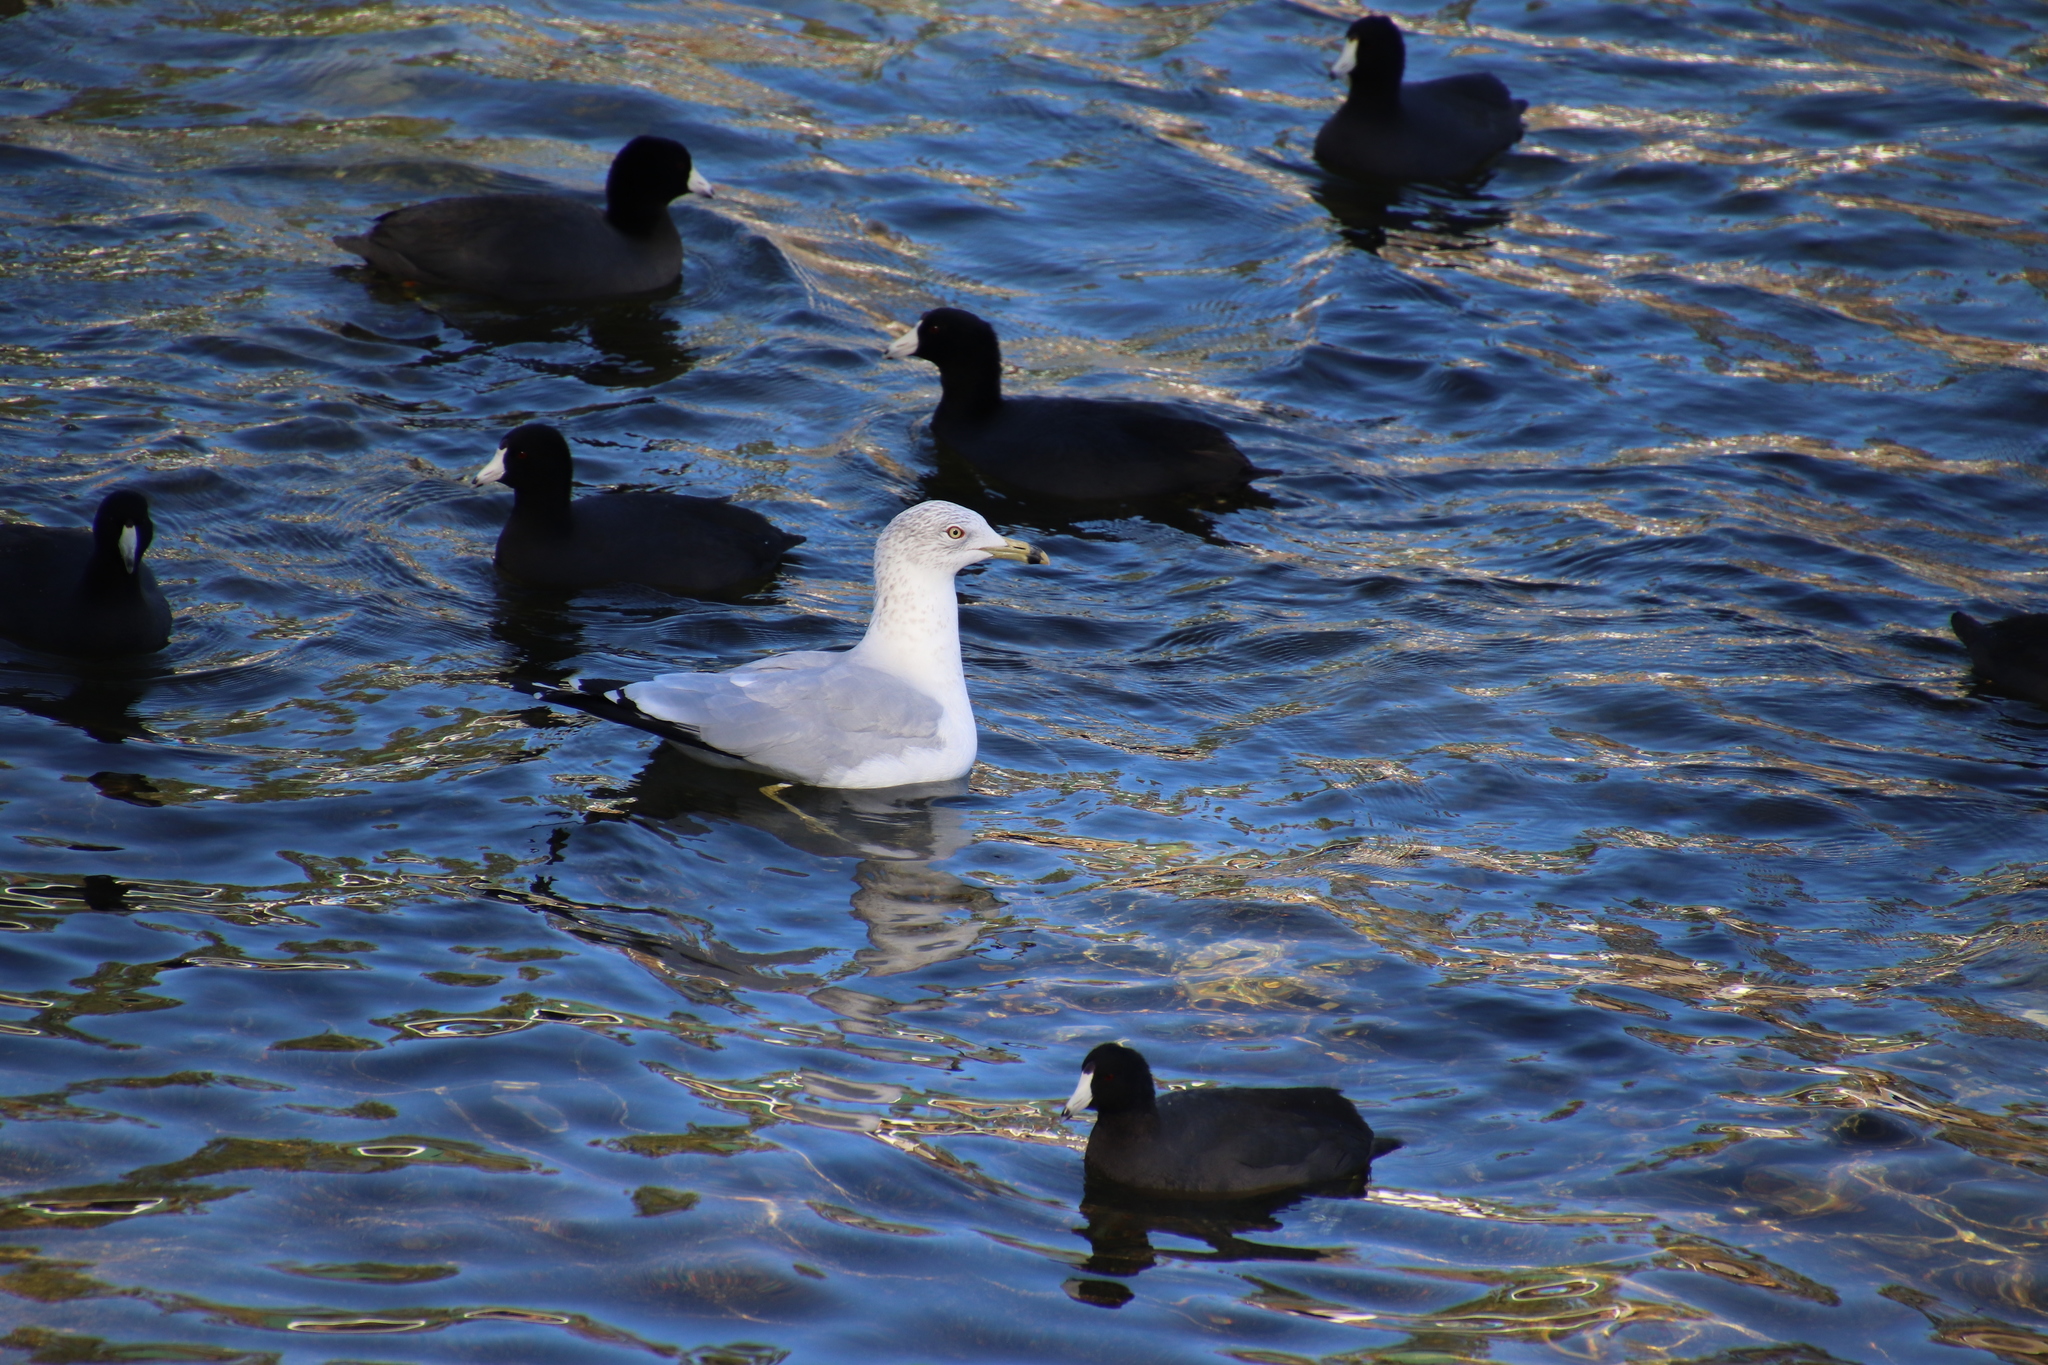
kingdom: Animalia
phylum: Chordata
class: Aves
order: Charadriiformes
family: Laridae
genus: Larus
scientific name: Larus delawarensis
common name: Ring-billed gull
